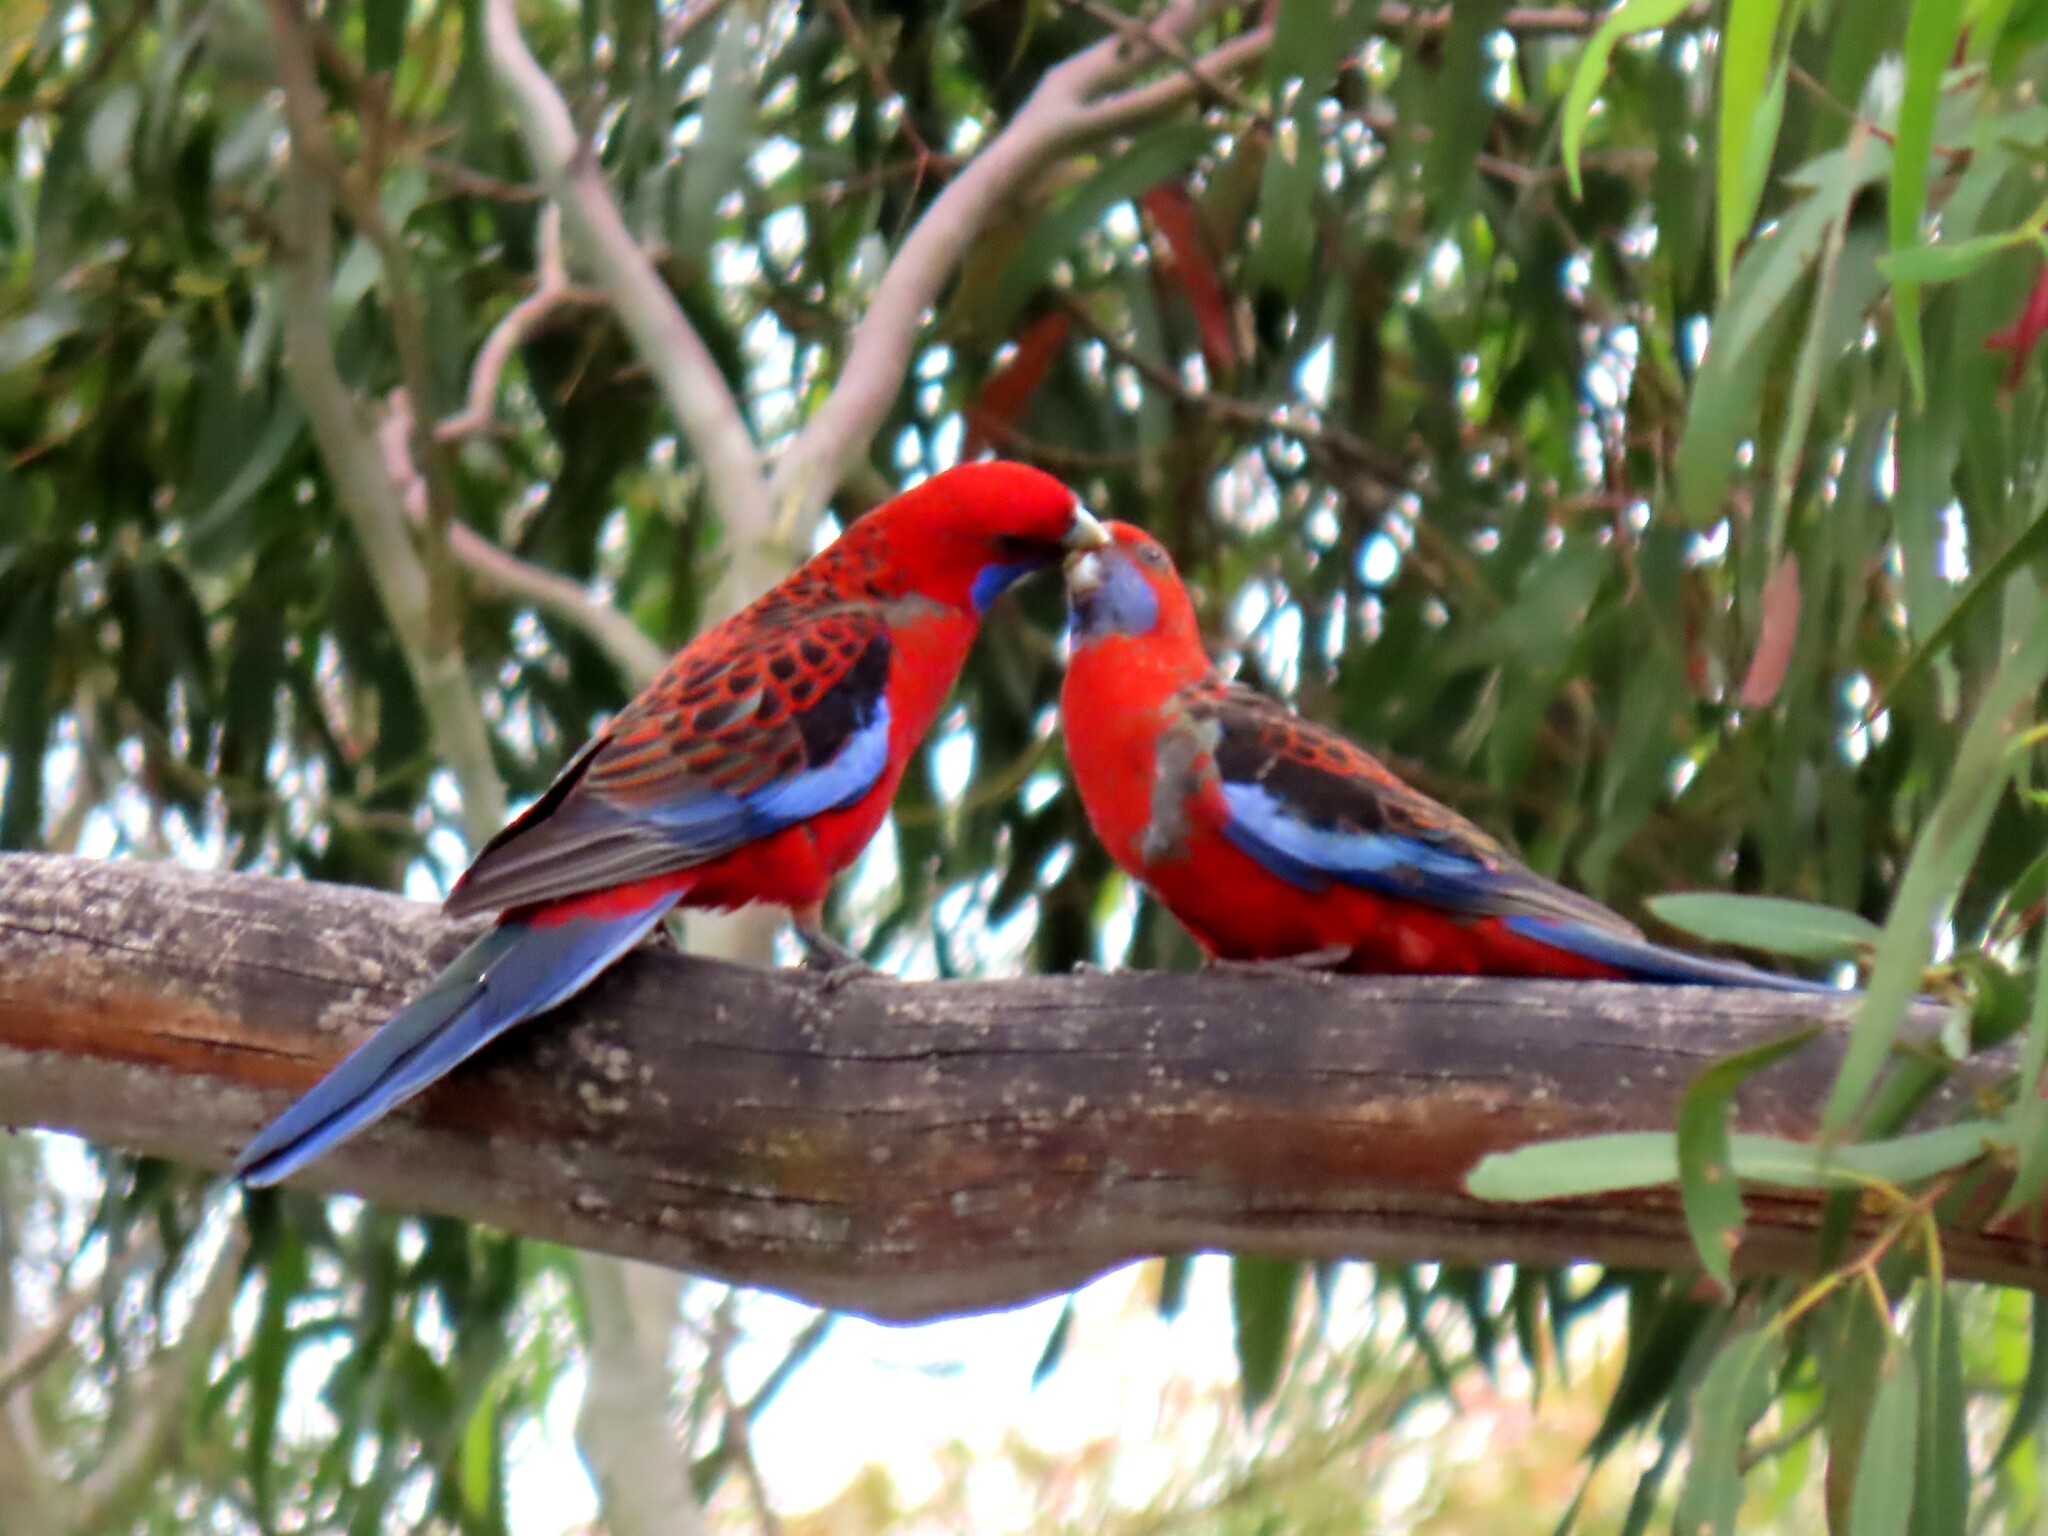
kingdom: Animalia
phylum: Chordata
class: Aves
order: Psittaciformes
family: Psittacidae
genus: Platycercus
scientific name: Platycercus elegans
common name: Crimson rosella
